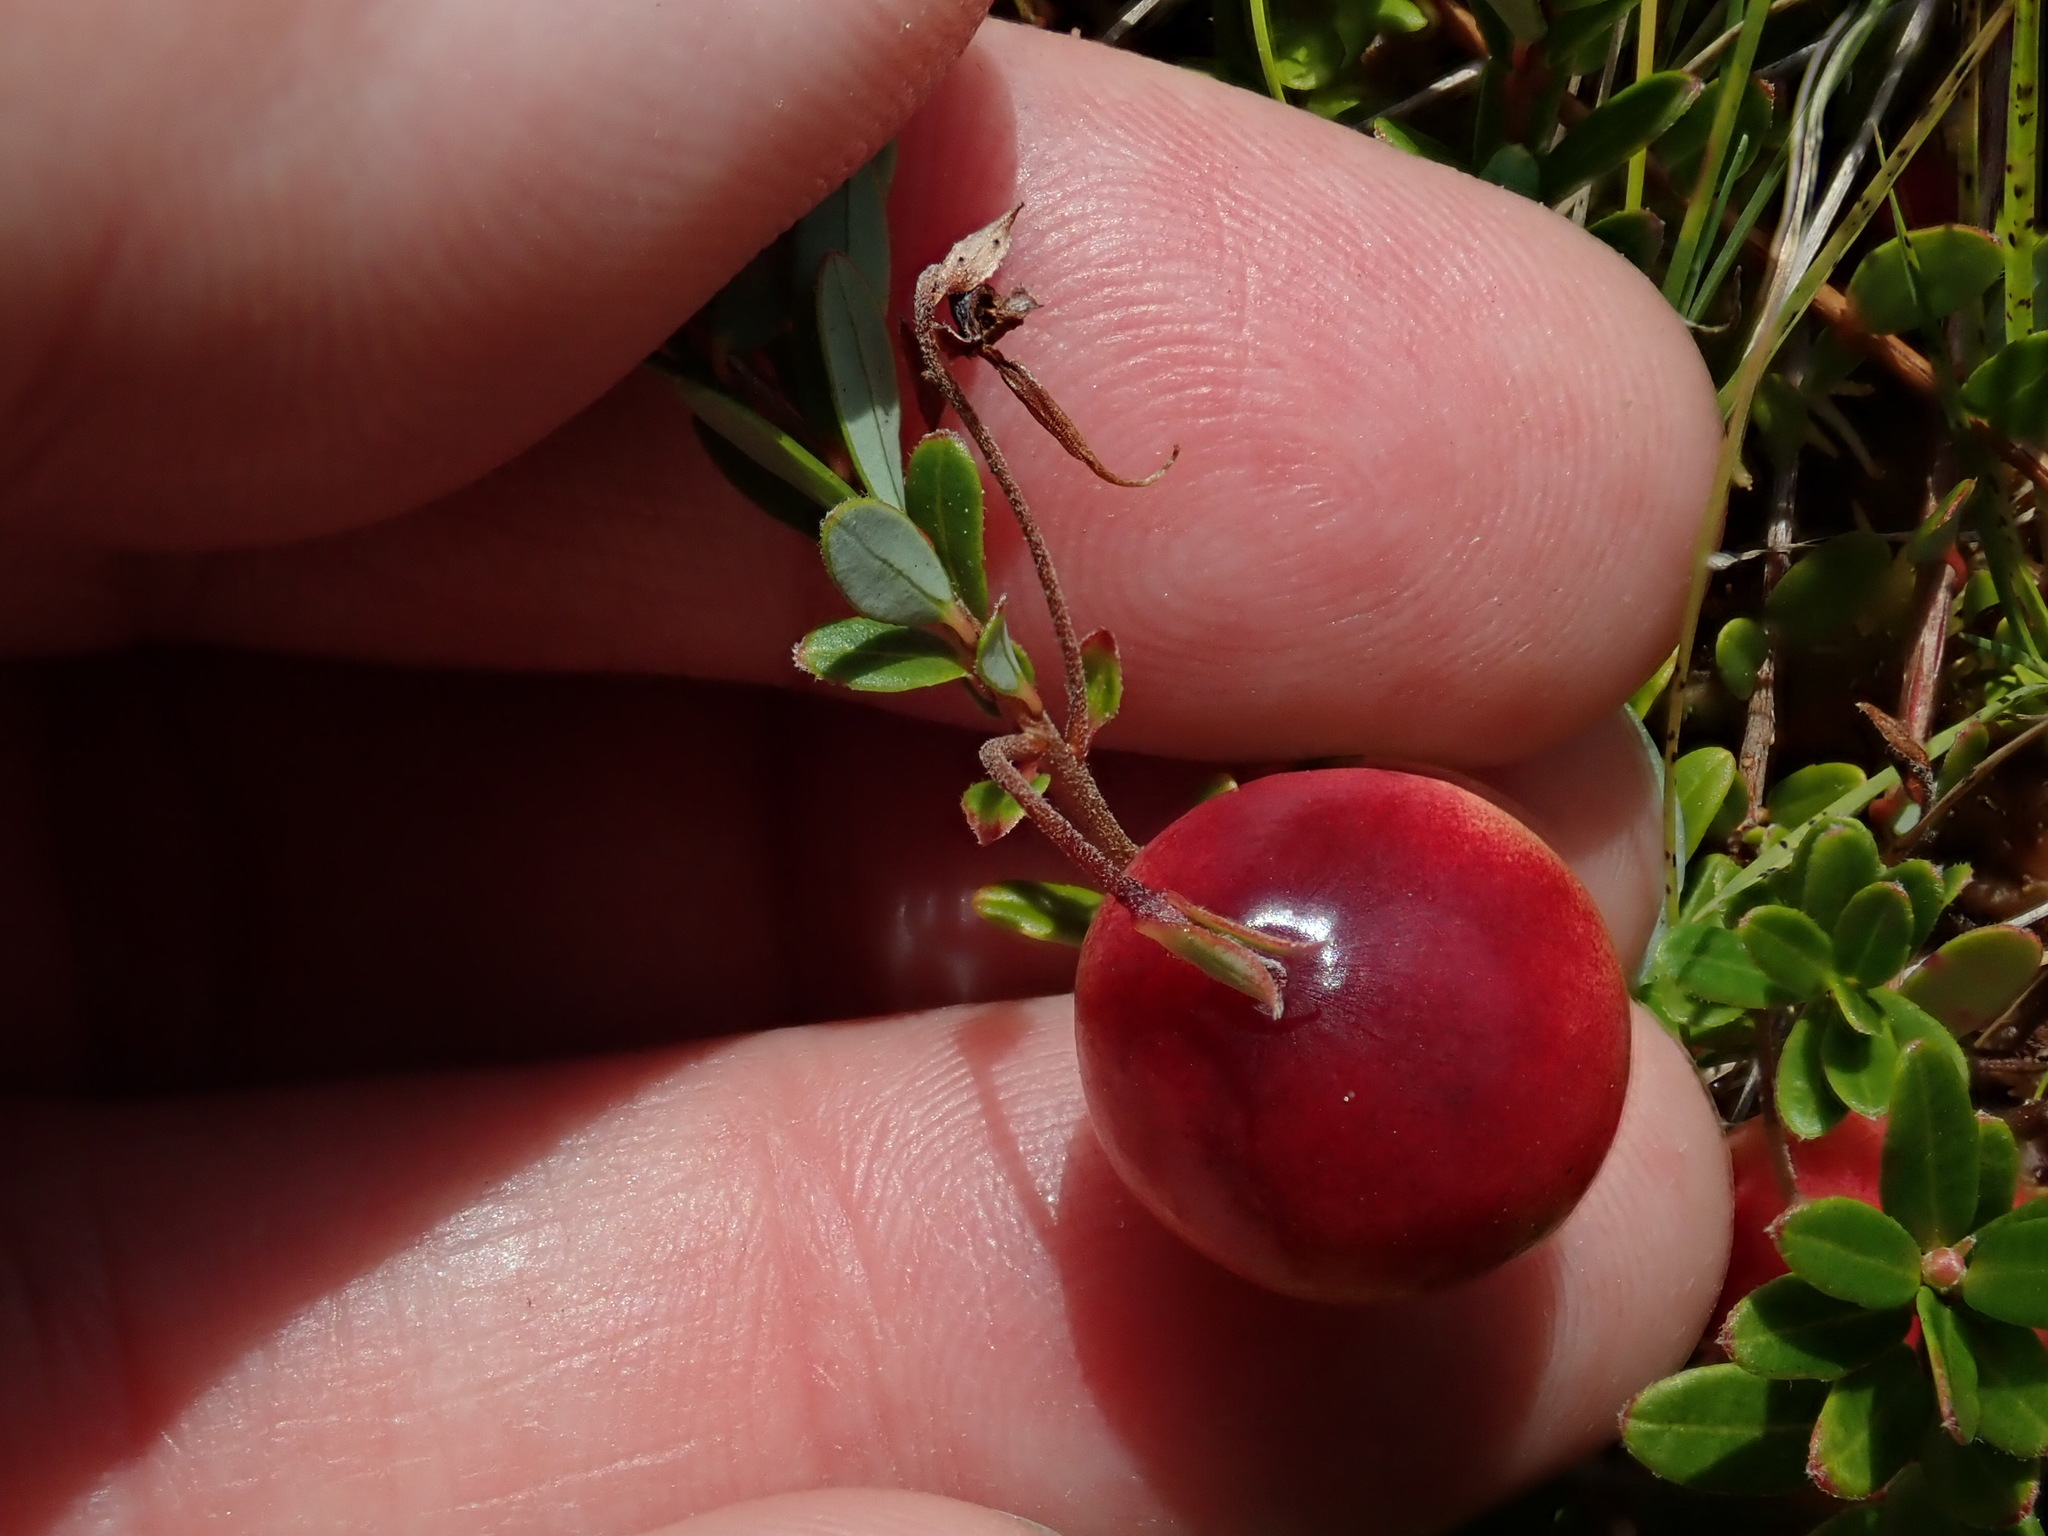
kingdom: Plantae
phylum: Tracheophyta
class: Magnoliopsida
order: Ericales
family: Ericaceae
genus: Vaccinium
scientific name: Vaccinium macrocarpon
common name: American cranberry
